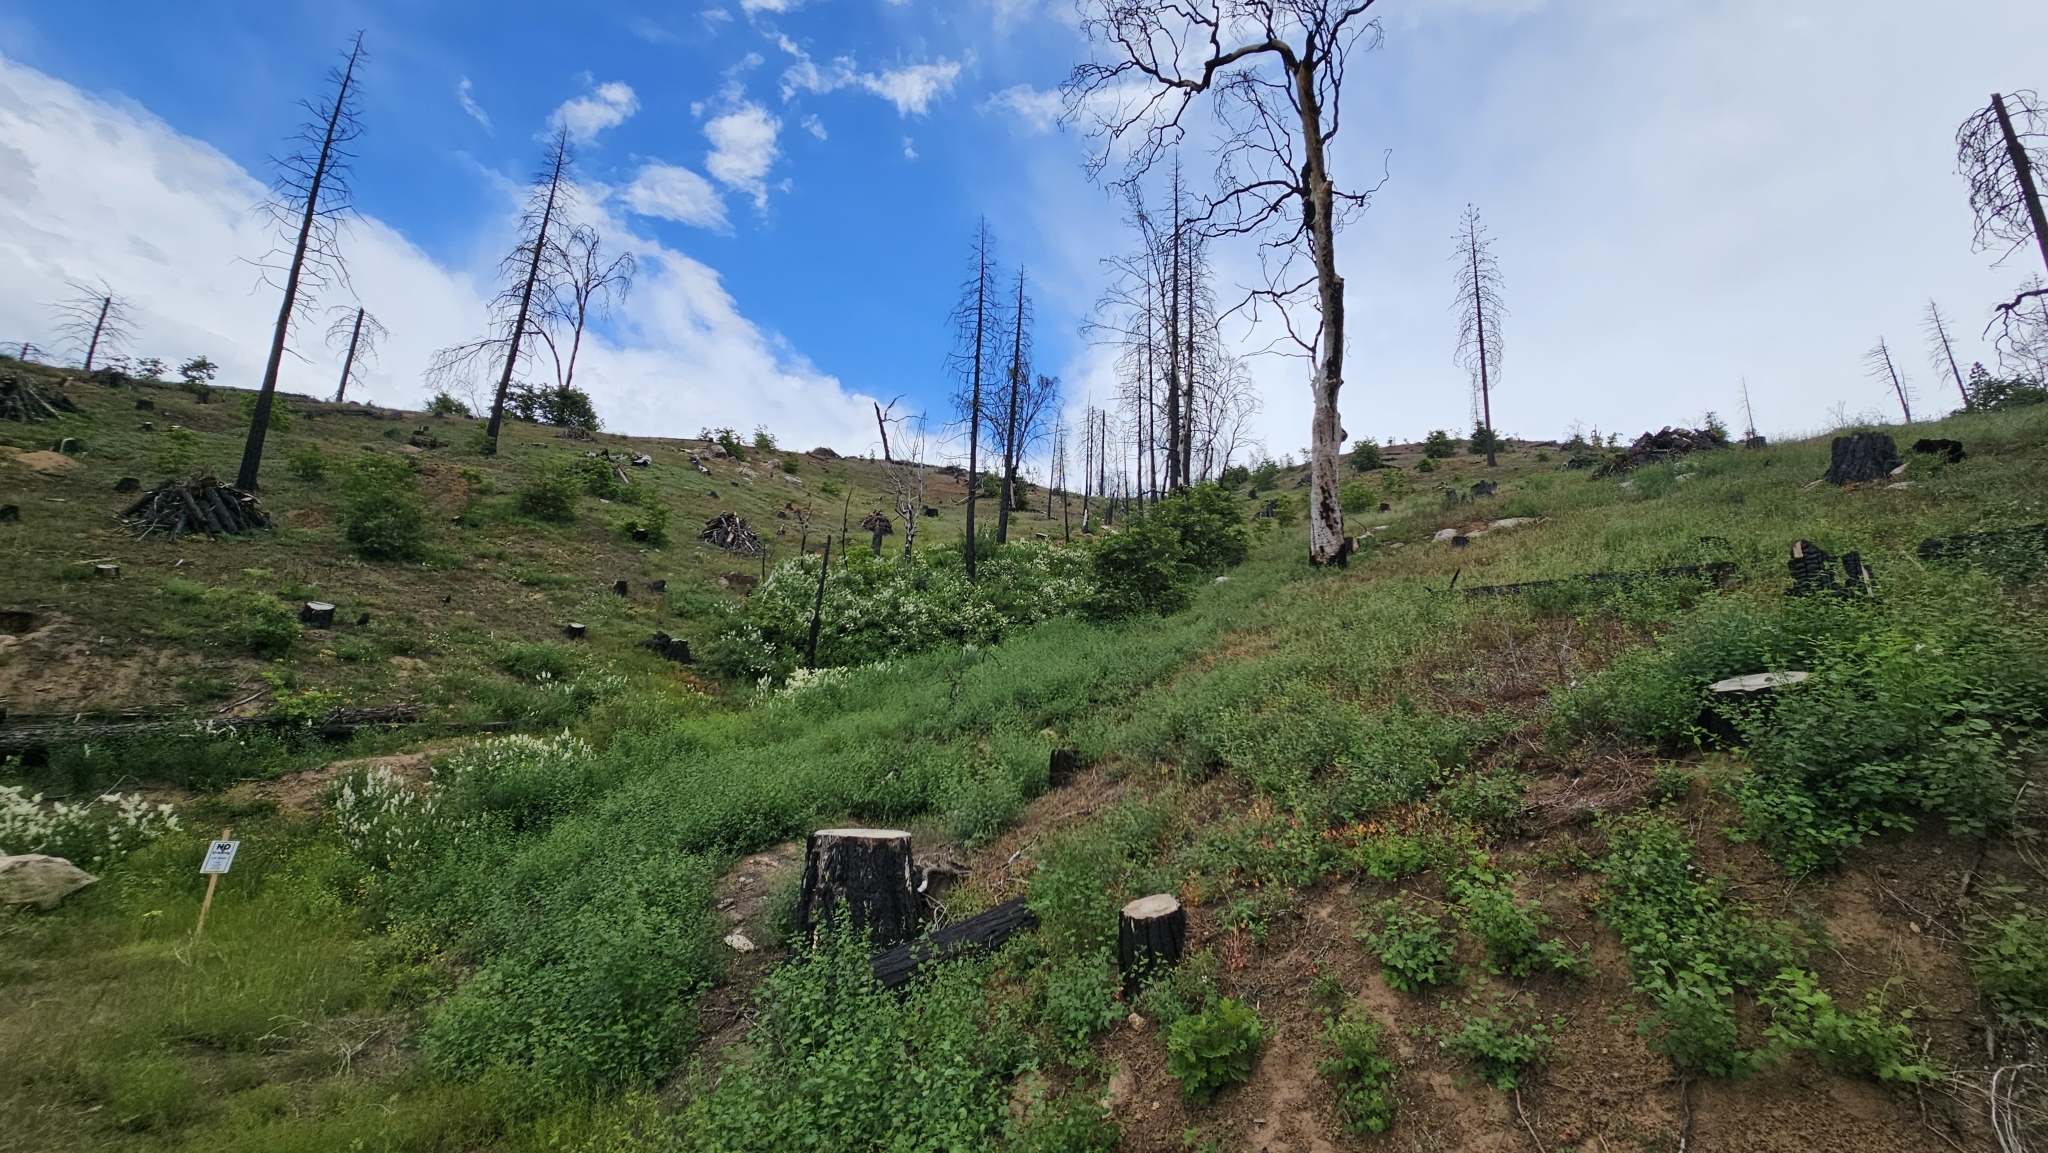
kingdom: Plantae
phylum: Tracheophyta
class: Magnoliopsida
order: Lamiales
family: Phrymaceae
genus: Erythranthe
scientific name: Erythranthe acutidens
